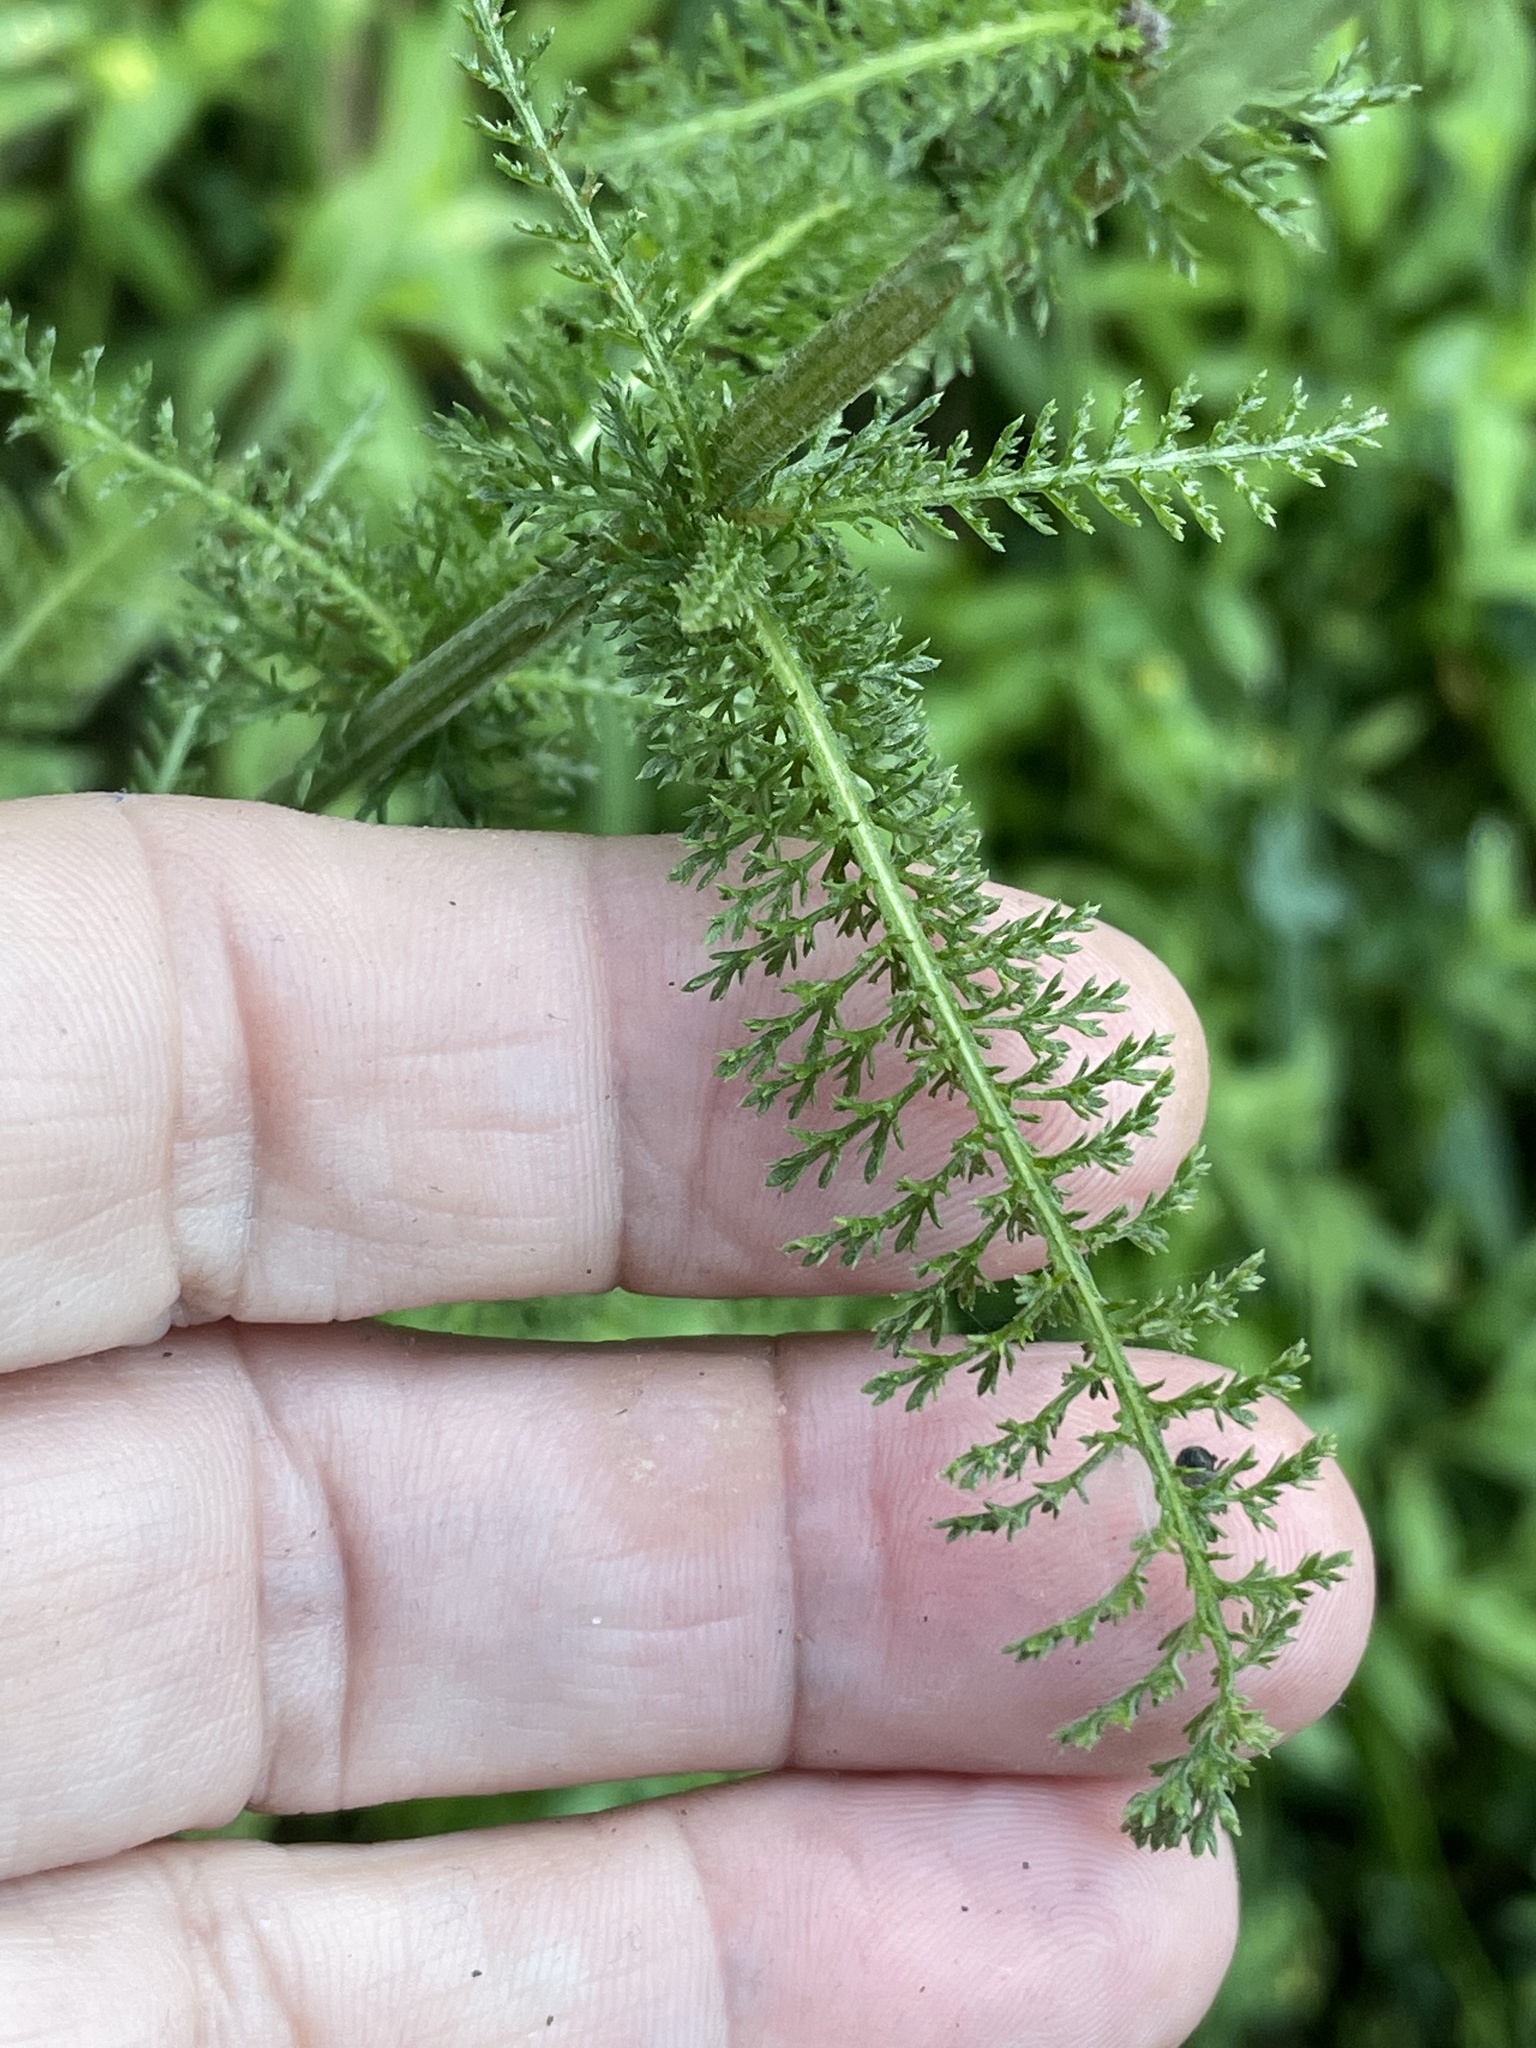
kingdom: Plantae
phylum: Tracheophyta
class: Magnoliopsida
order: Asterales
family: Asteraceae
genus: Achillea
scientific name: Achillea millefolium
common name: Yarrow
